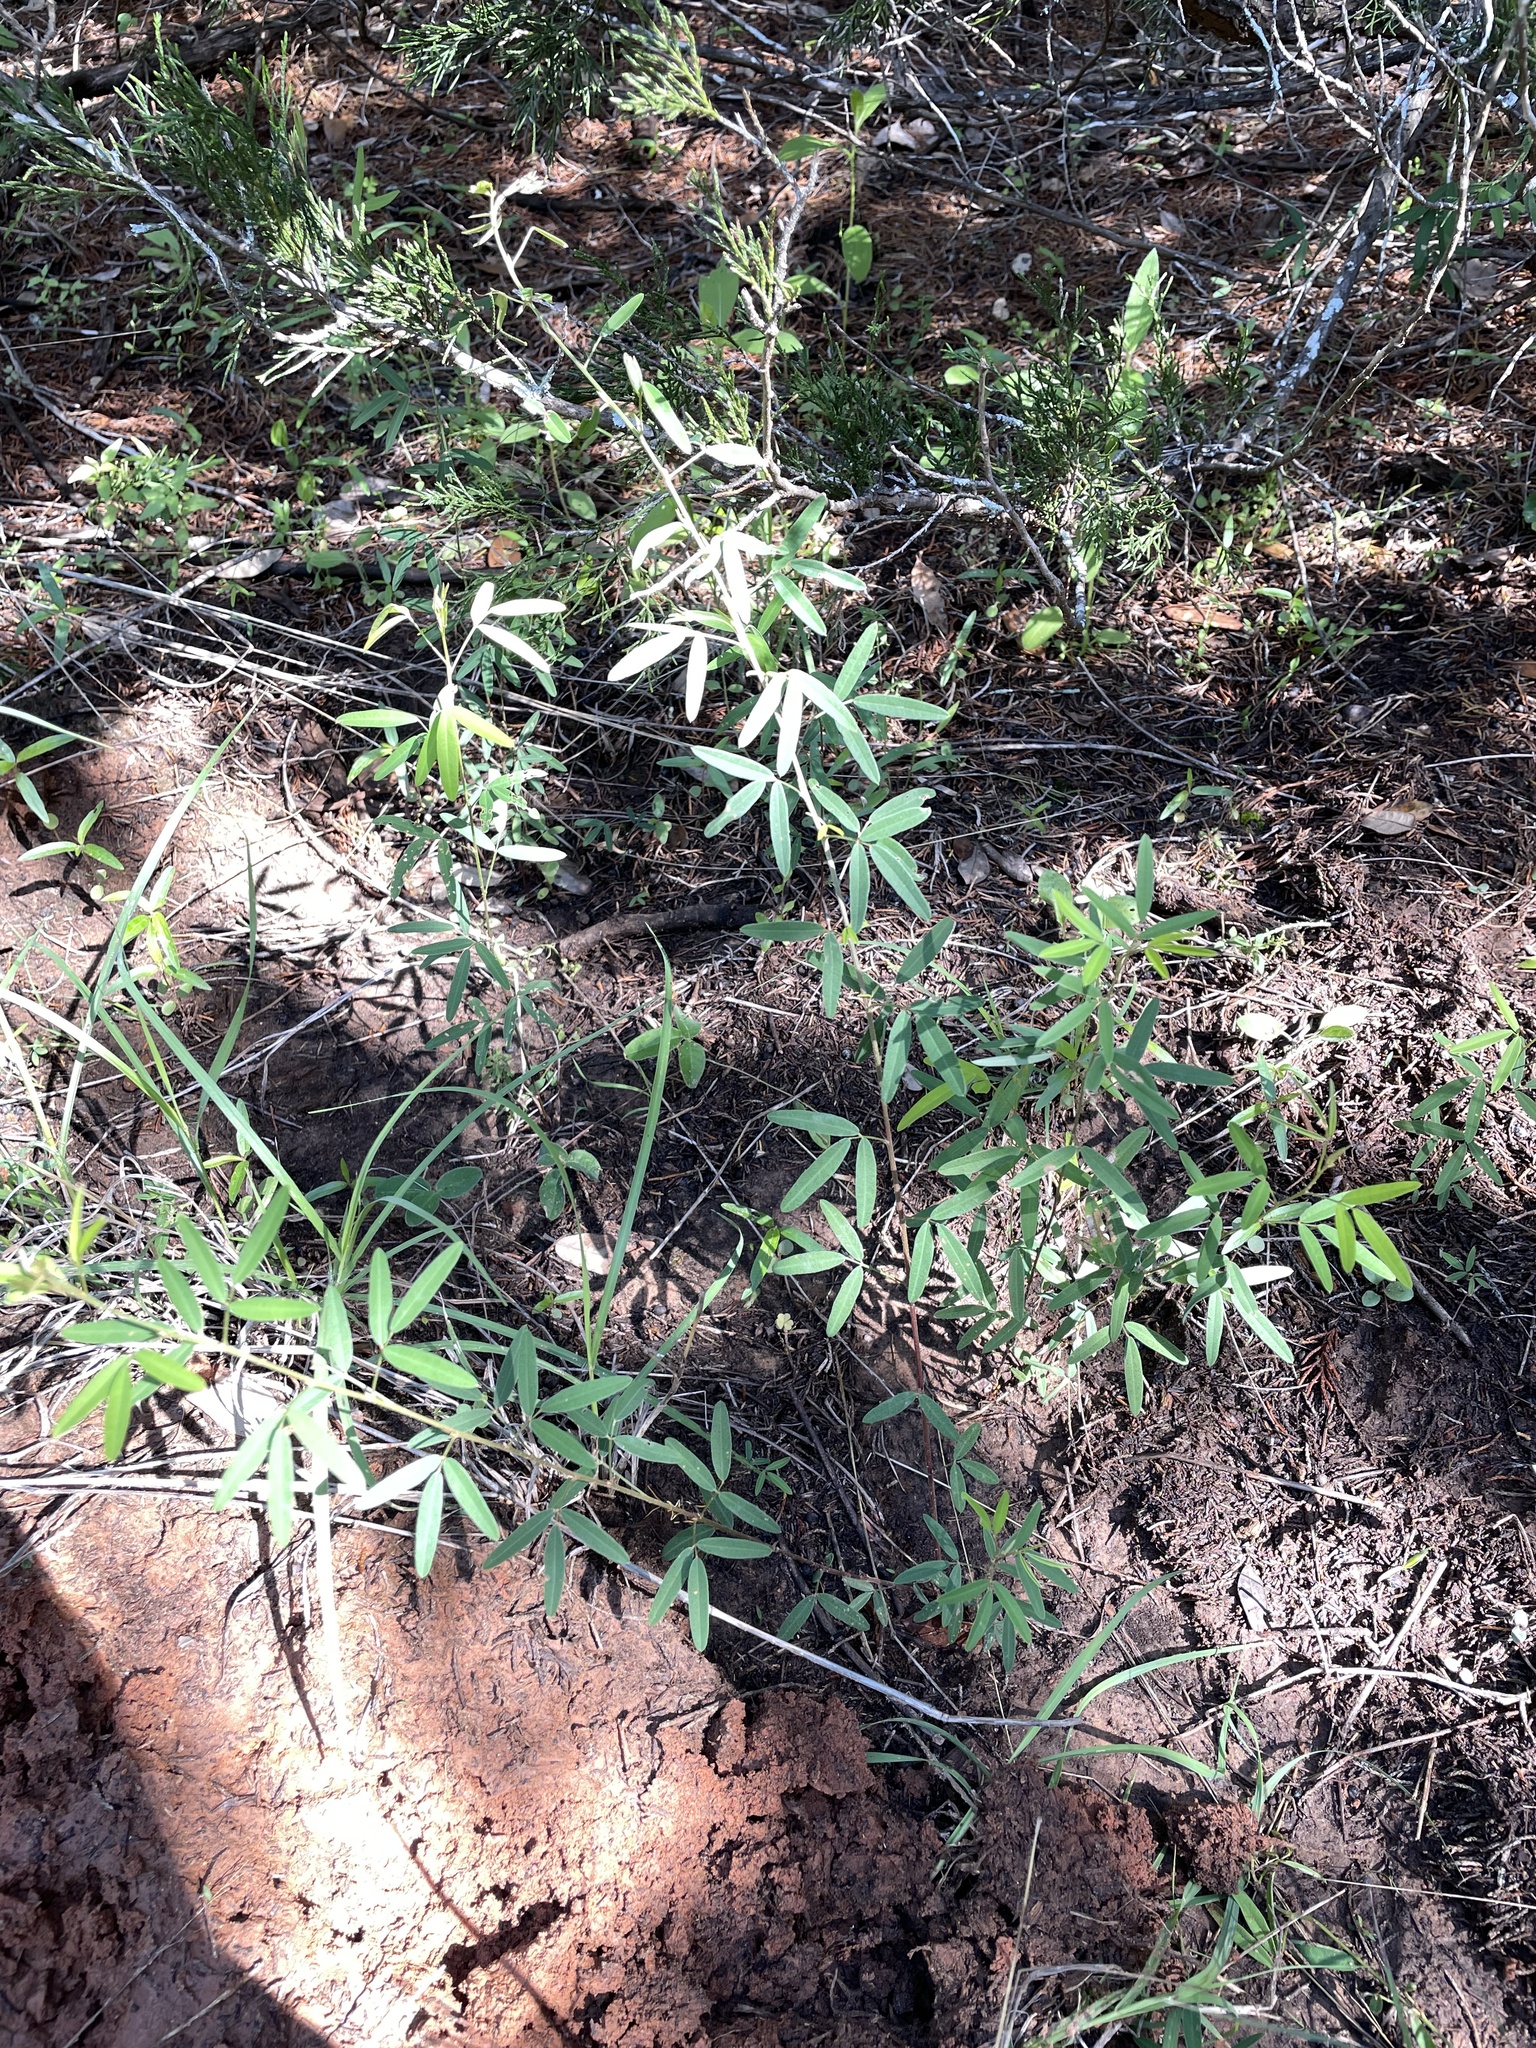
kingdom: Plantae
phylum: Tracheophyta
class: Magnoliopsida
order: Fabales
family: Fabaceae
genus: Lespedeza
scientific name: Lespedeza virginica
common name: Slender bush-clover
